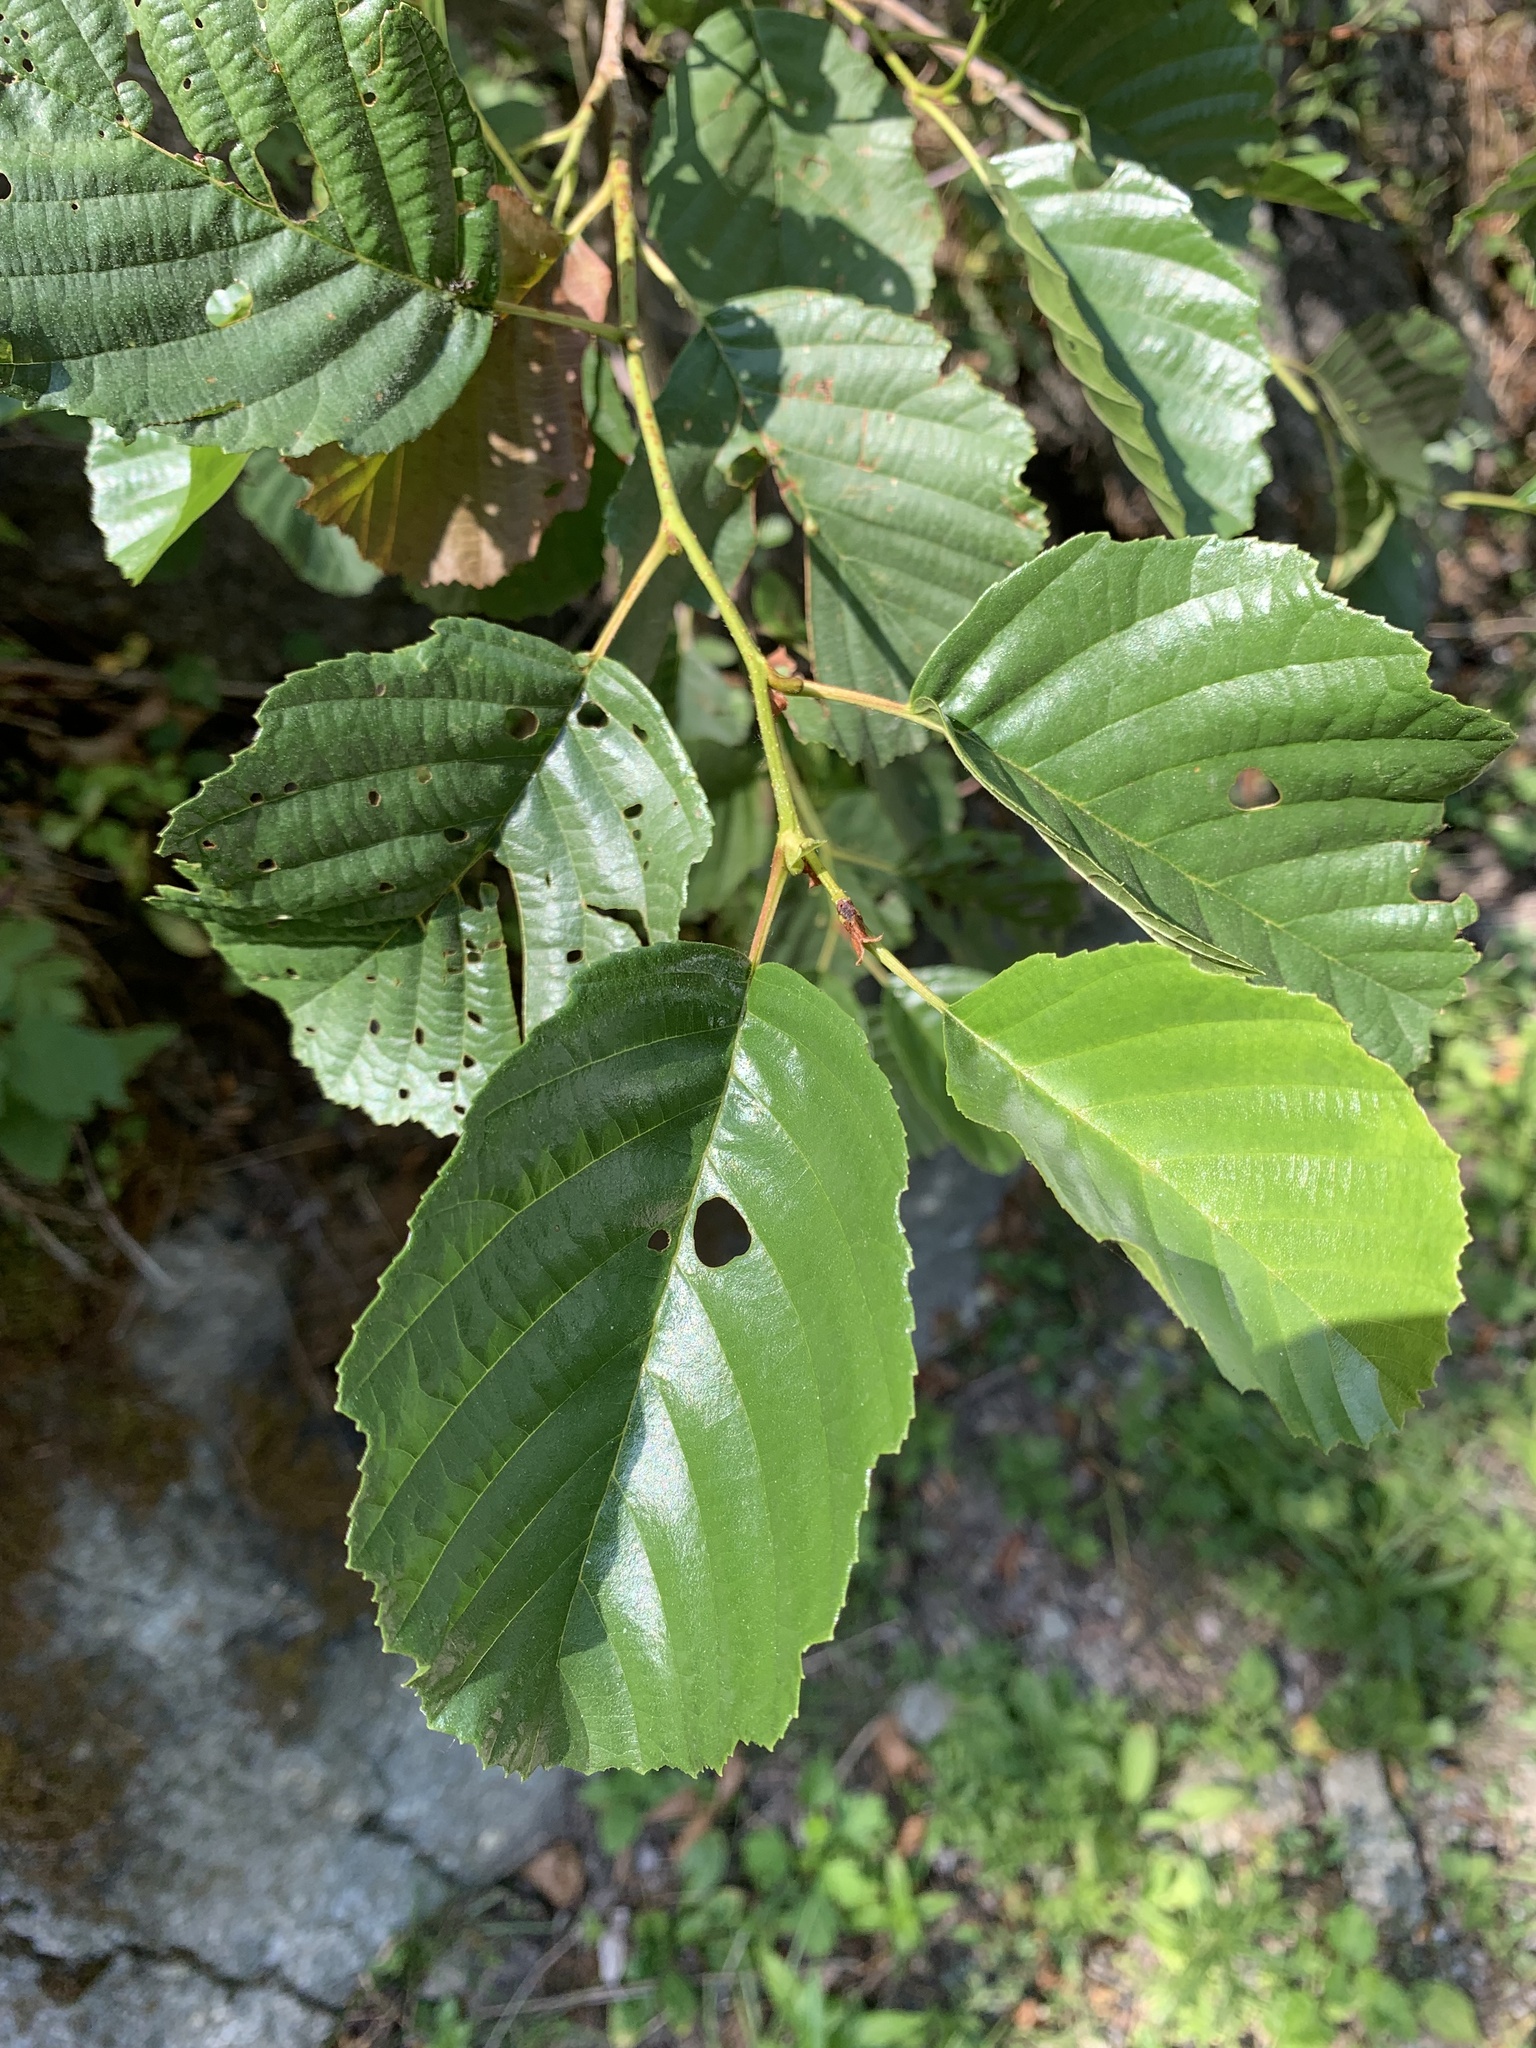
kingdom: Plantae
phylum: Tracheophyta
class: Magnoliopsida
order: Fagales
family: Betulaceae
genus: Alnus
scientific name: Alnus glutinosa
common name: Black alder
